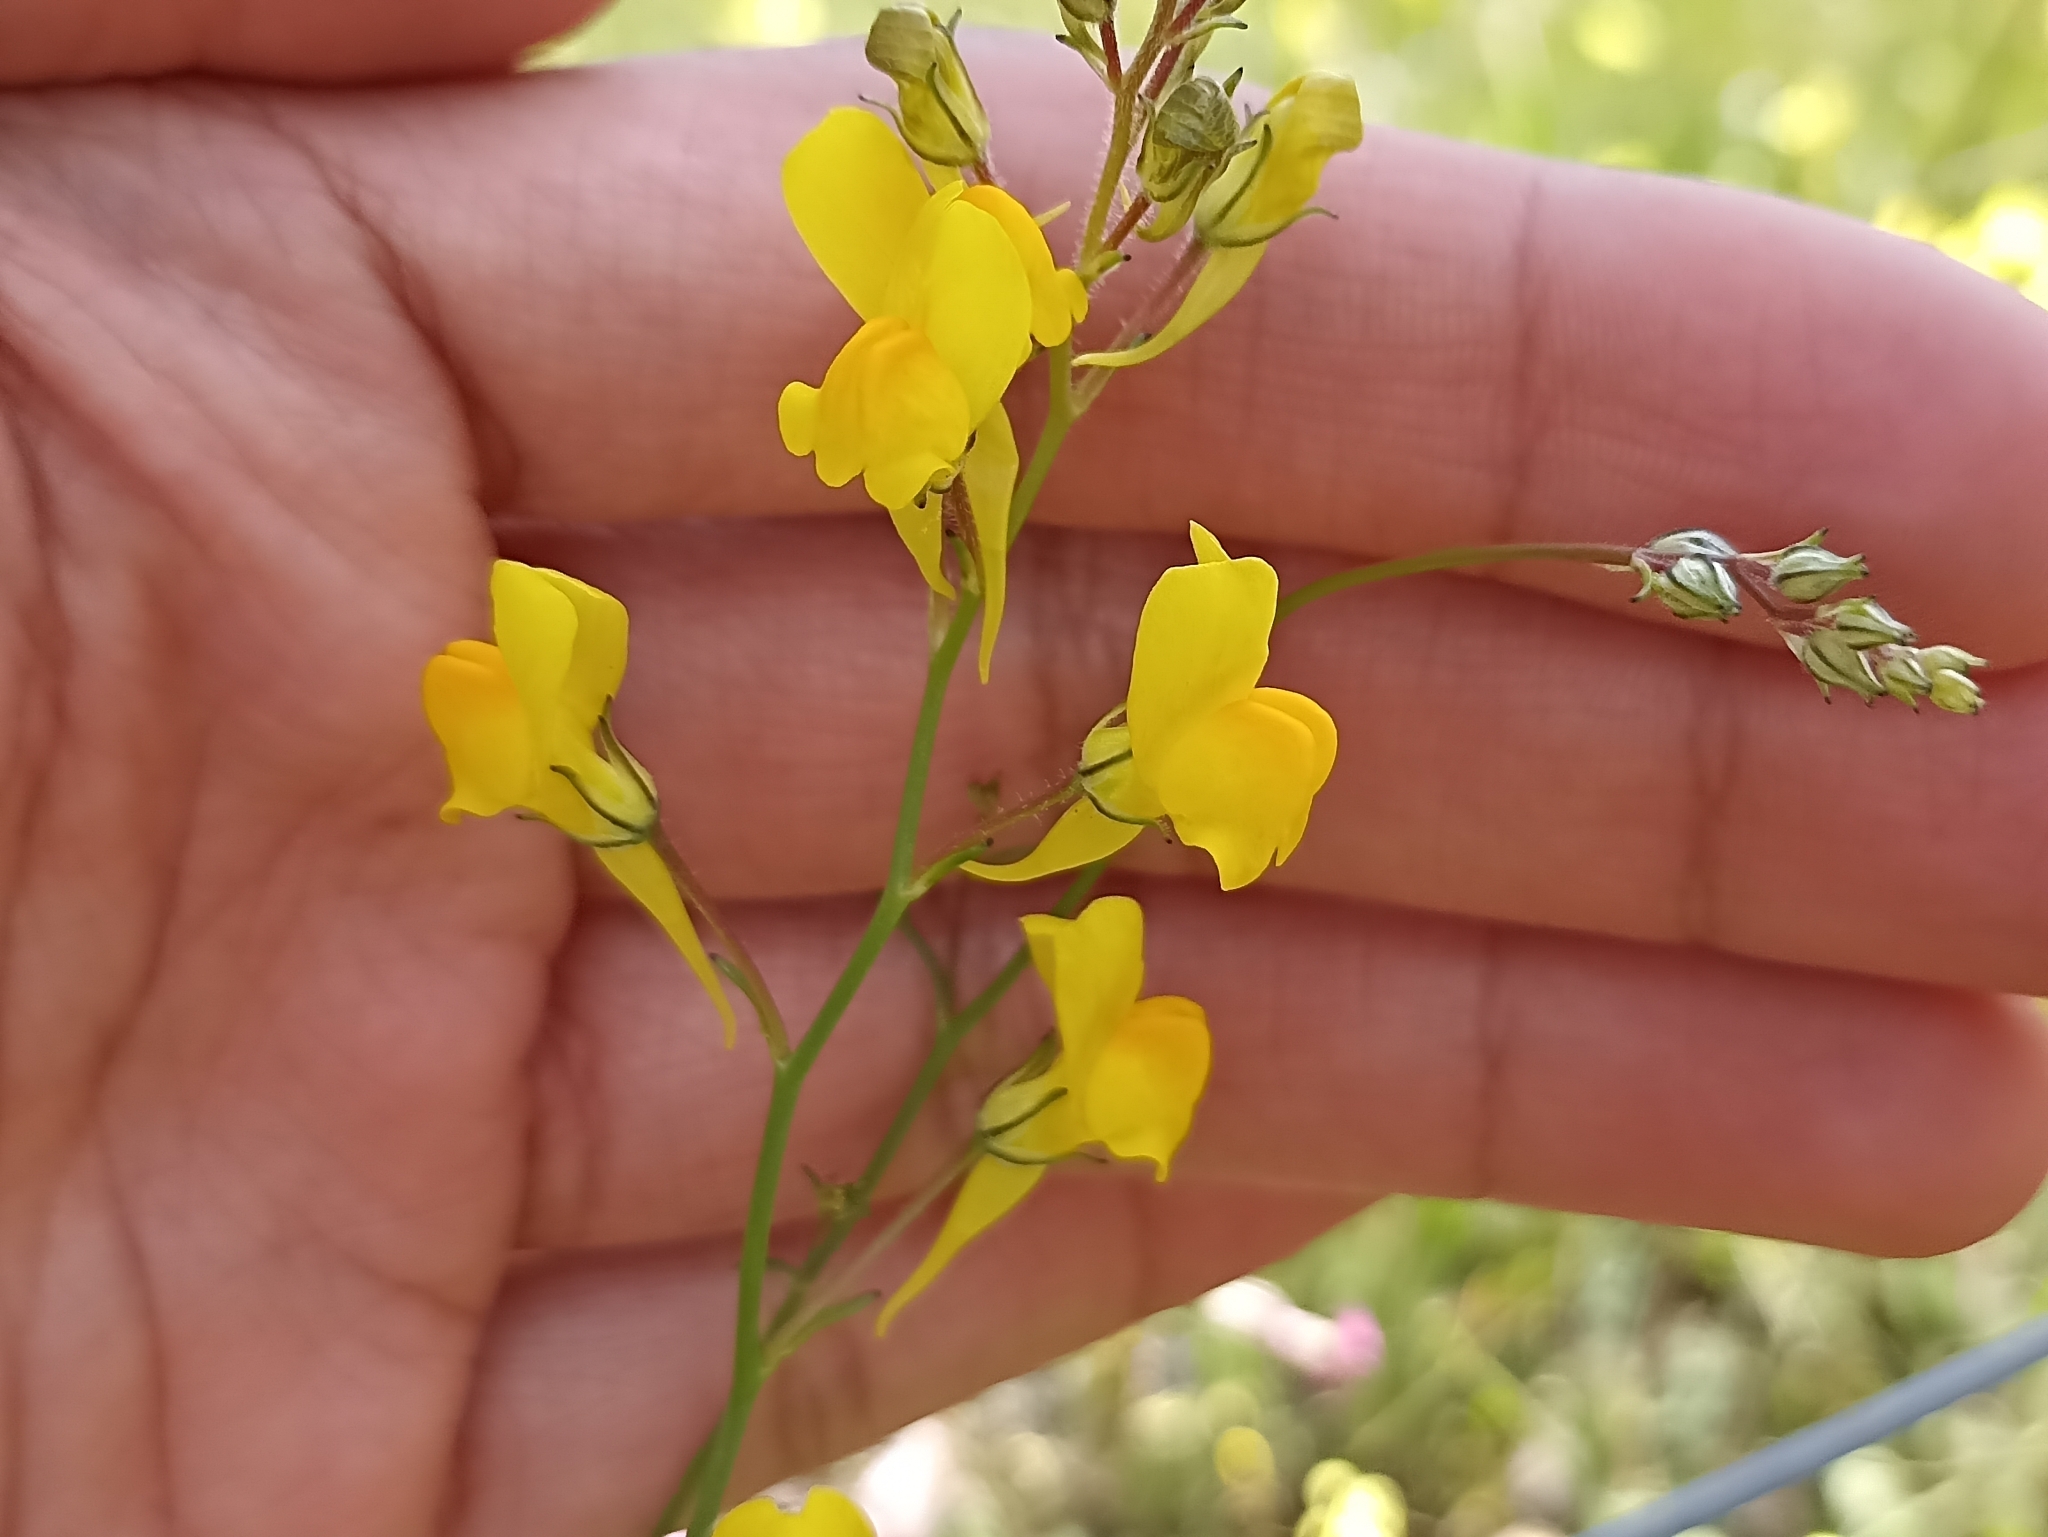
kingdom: Plantae
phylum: Tracheophyta
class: Magnoliopsida
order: Lamiales
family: Plantaginaceae
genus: Linaria
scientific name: Linaria spartea
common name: Ballast toadflax
